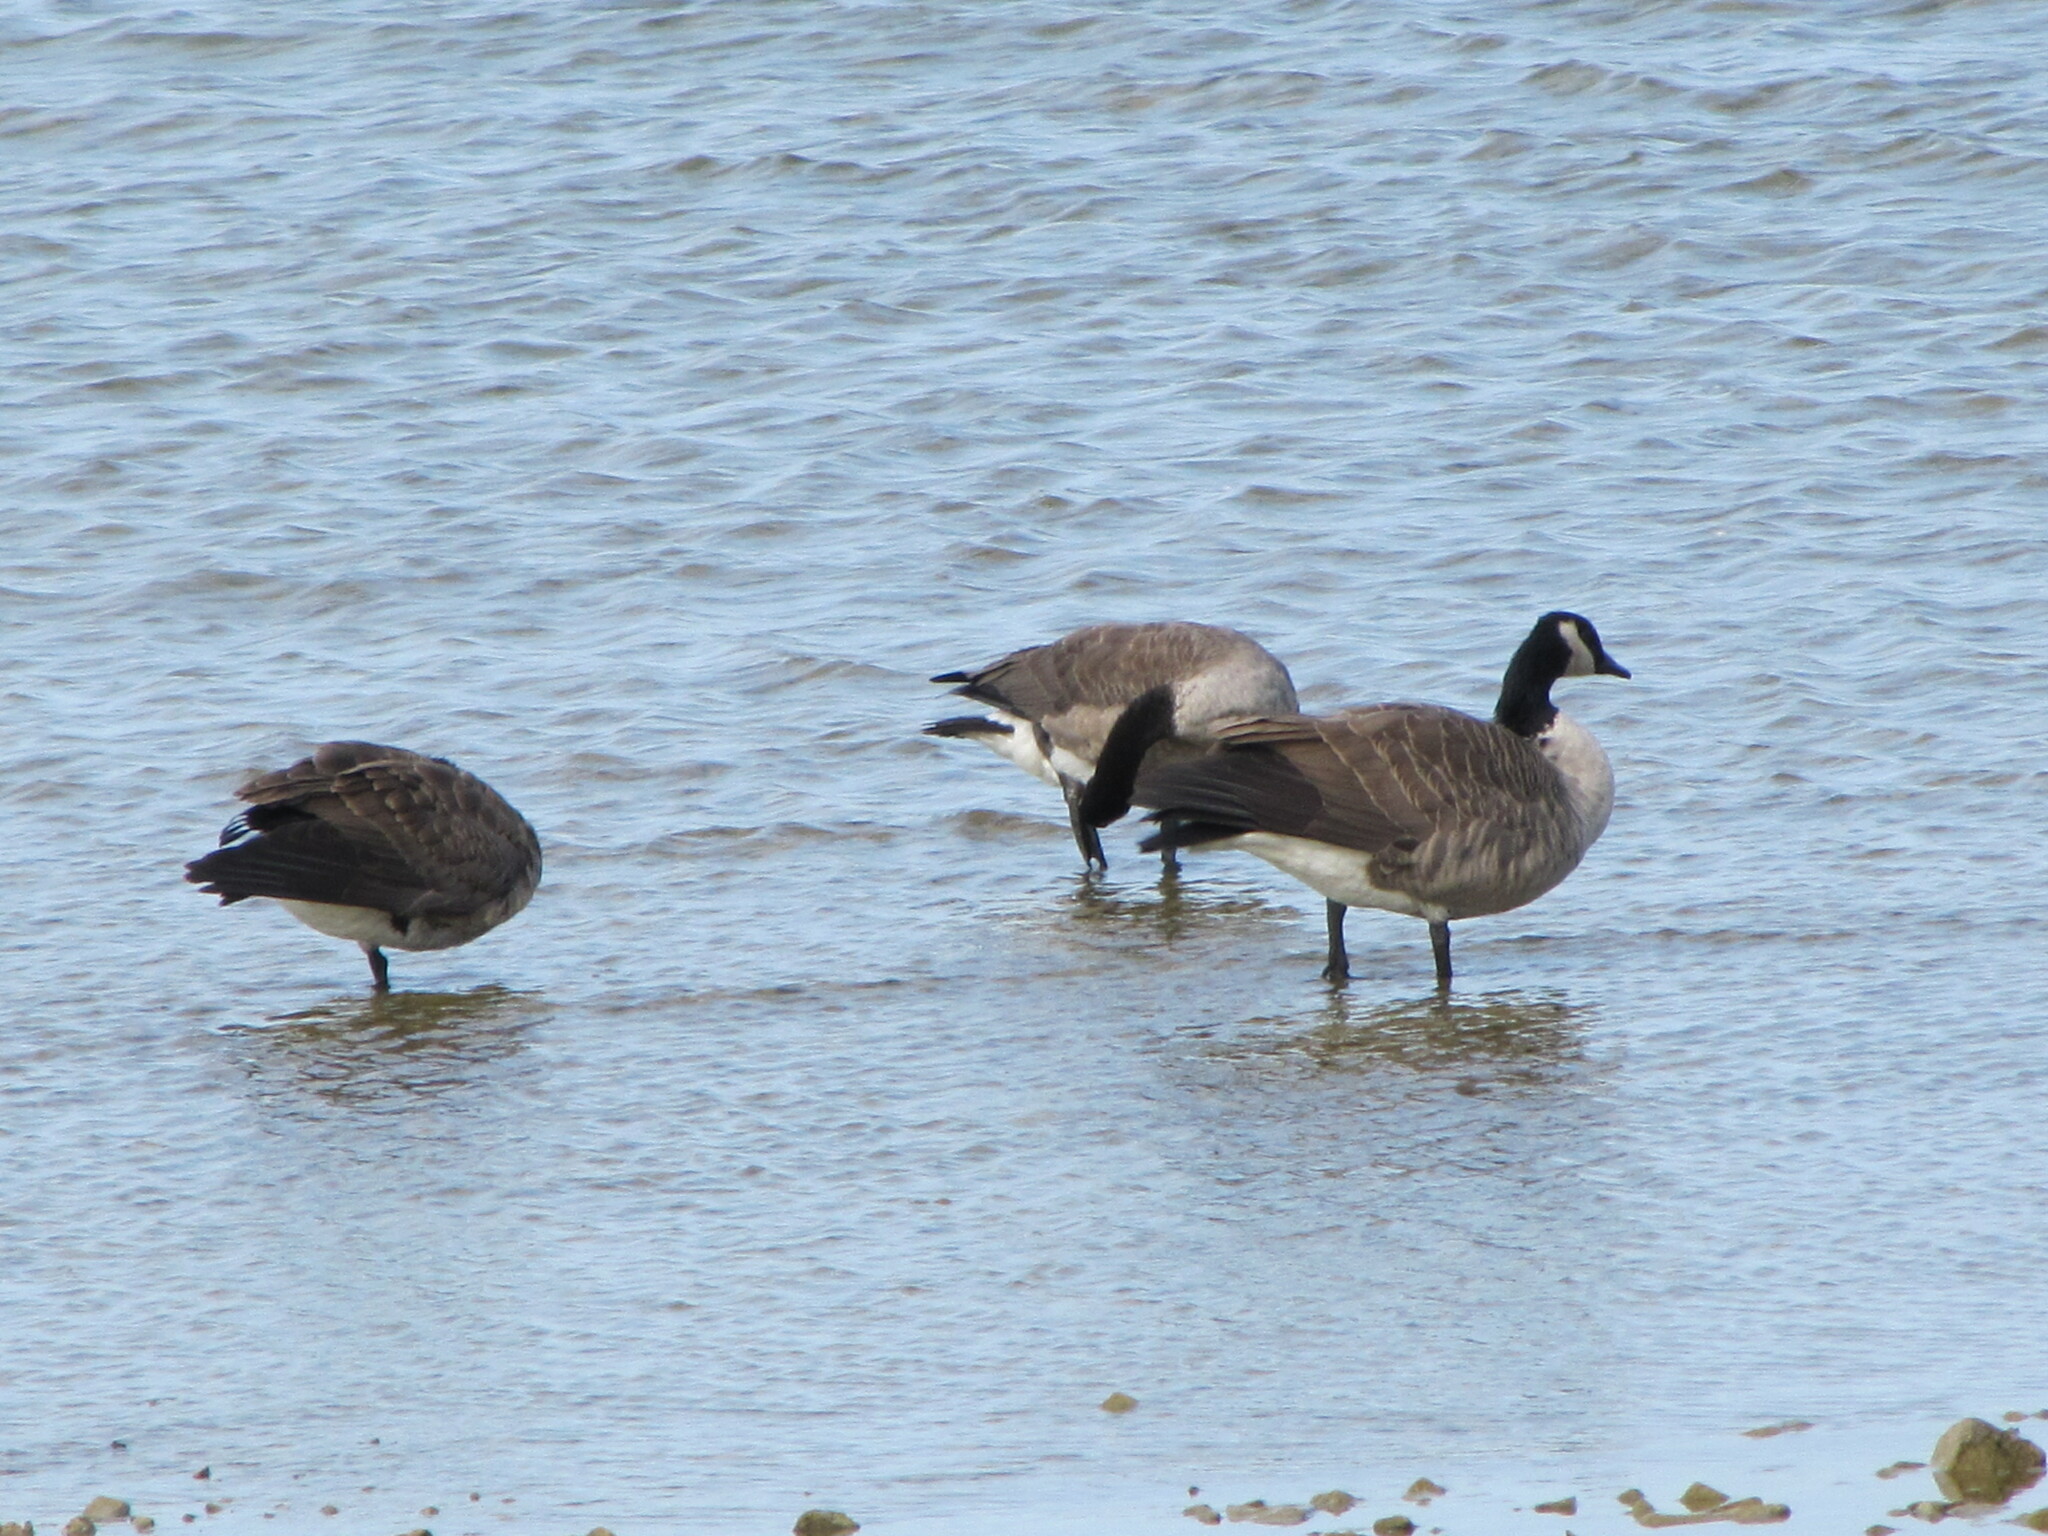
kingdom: Animalia
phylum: Chordata
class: Aves
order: Anseriformes
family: Anatidae
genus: Branta
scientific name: Branta canadensis
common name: Canada goose
